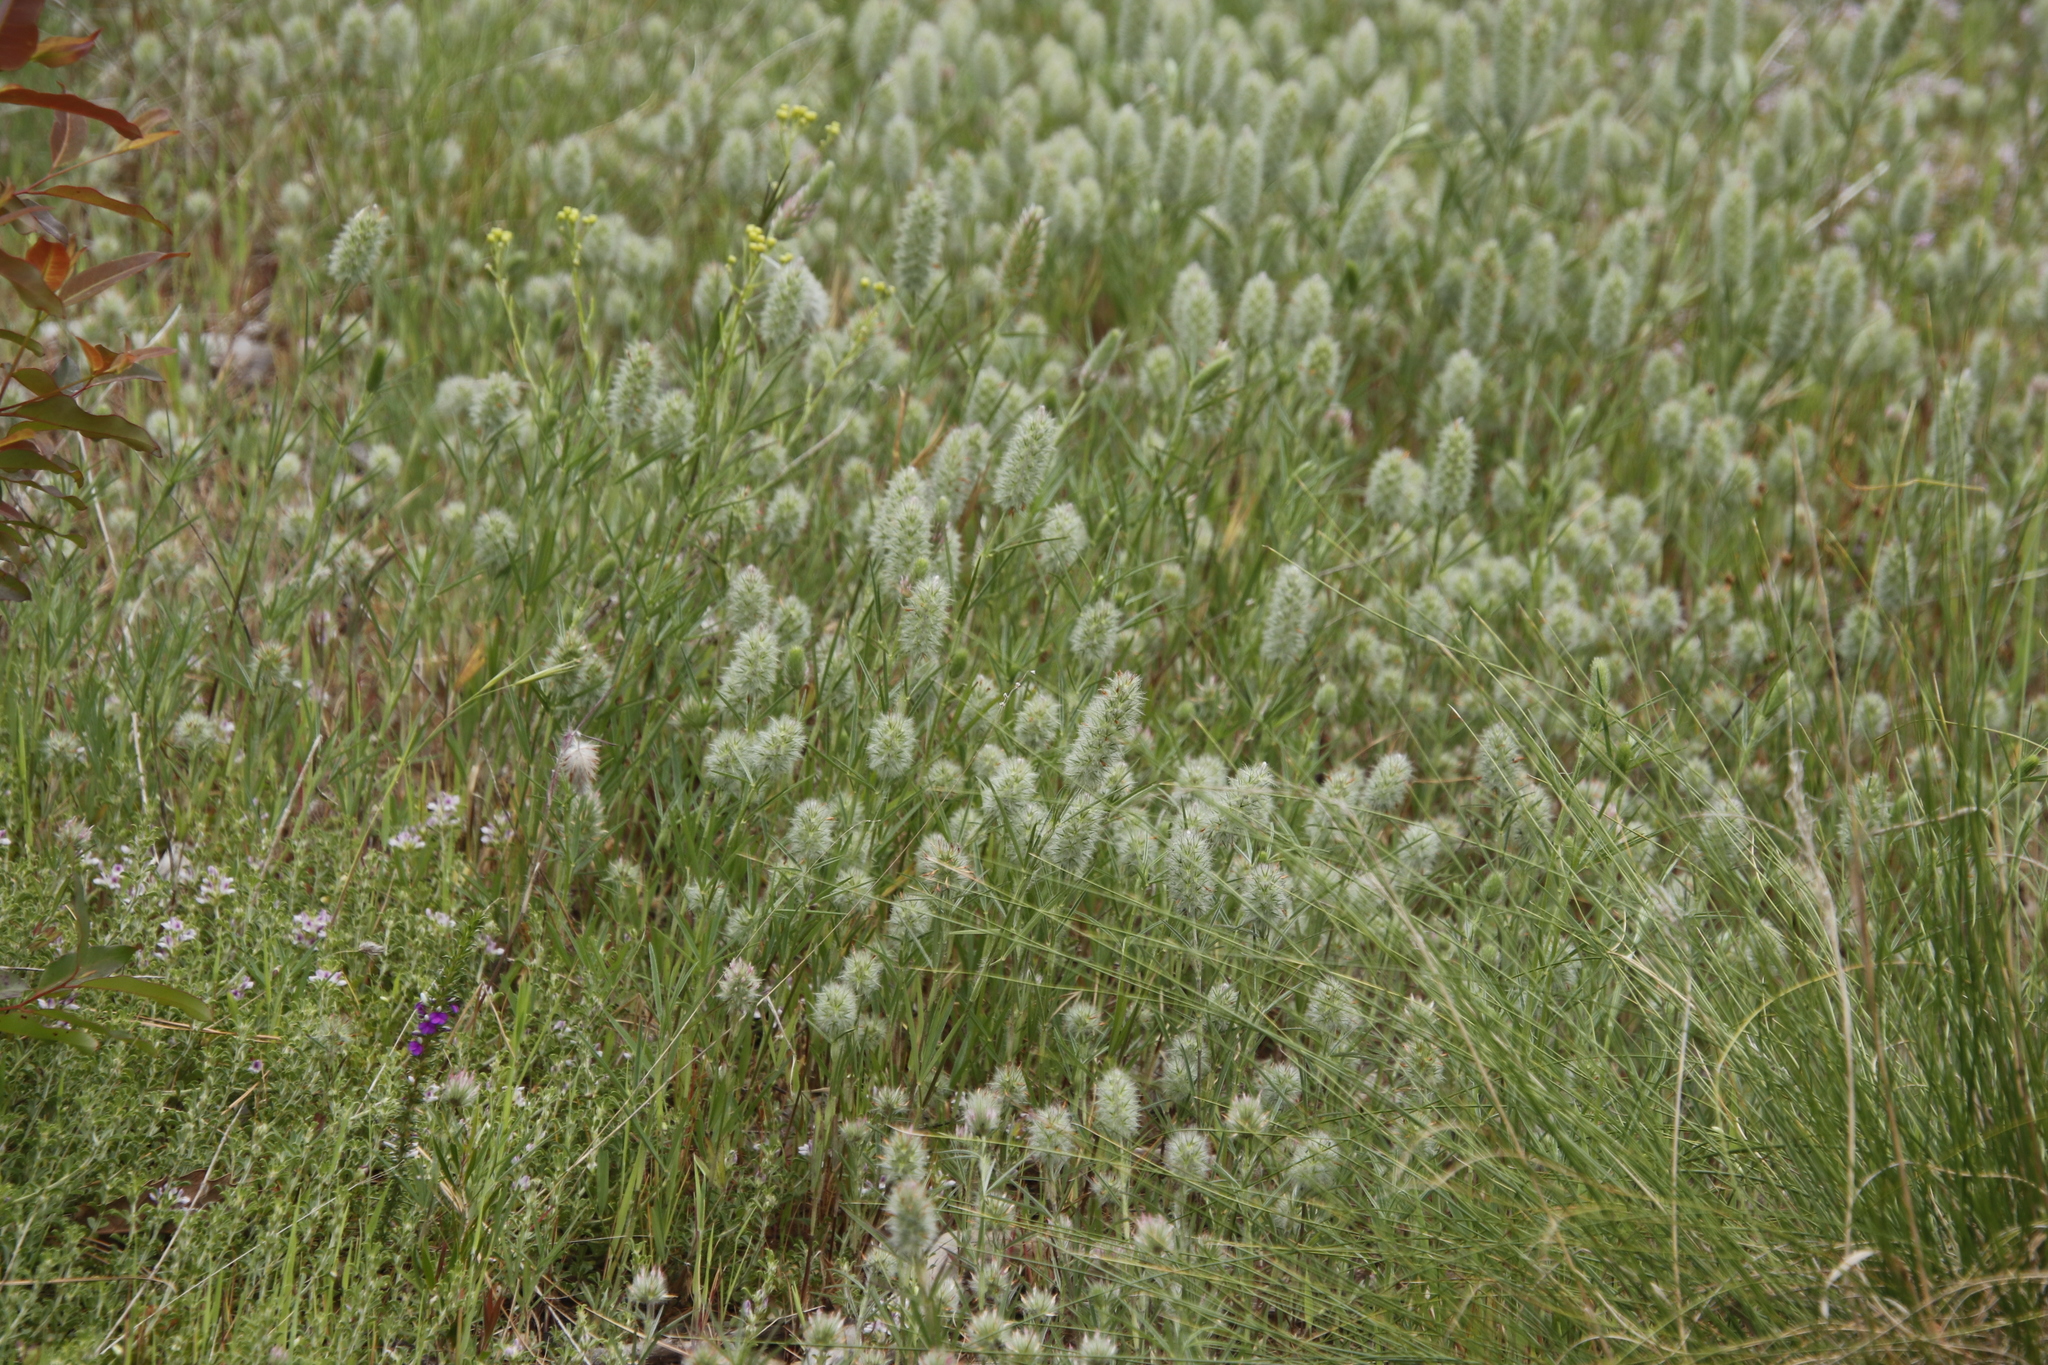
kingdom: Plantae
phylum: Tracheophyta
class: Magnoliopsida
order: Fabales
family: Fabaceae
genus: Trifolium
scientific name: Trifolium angustifolium
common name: Narrow clover
